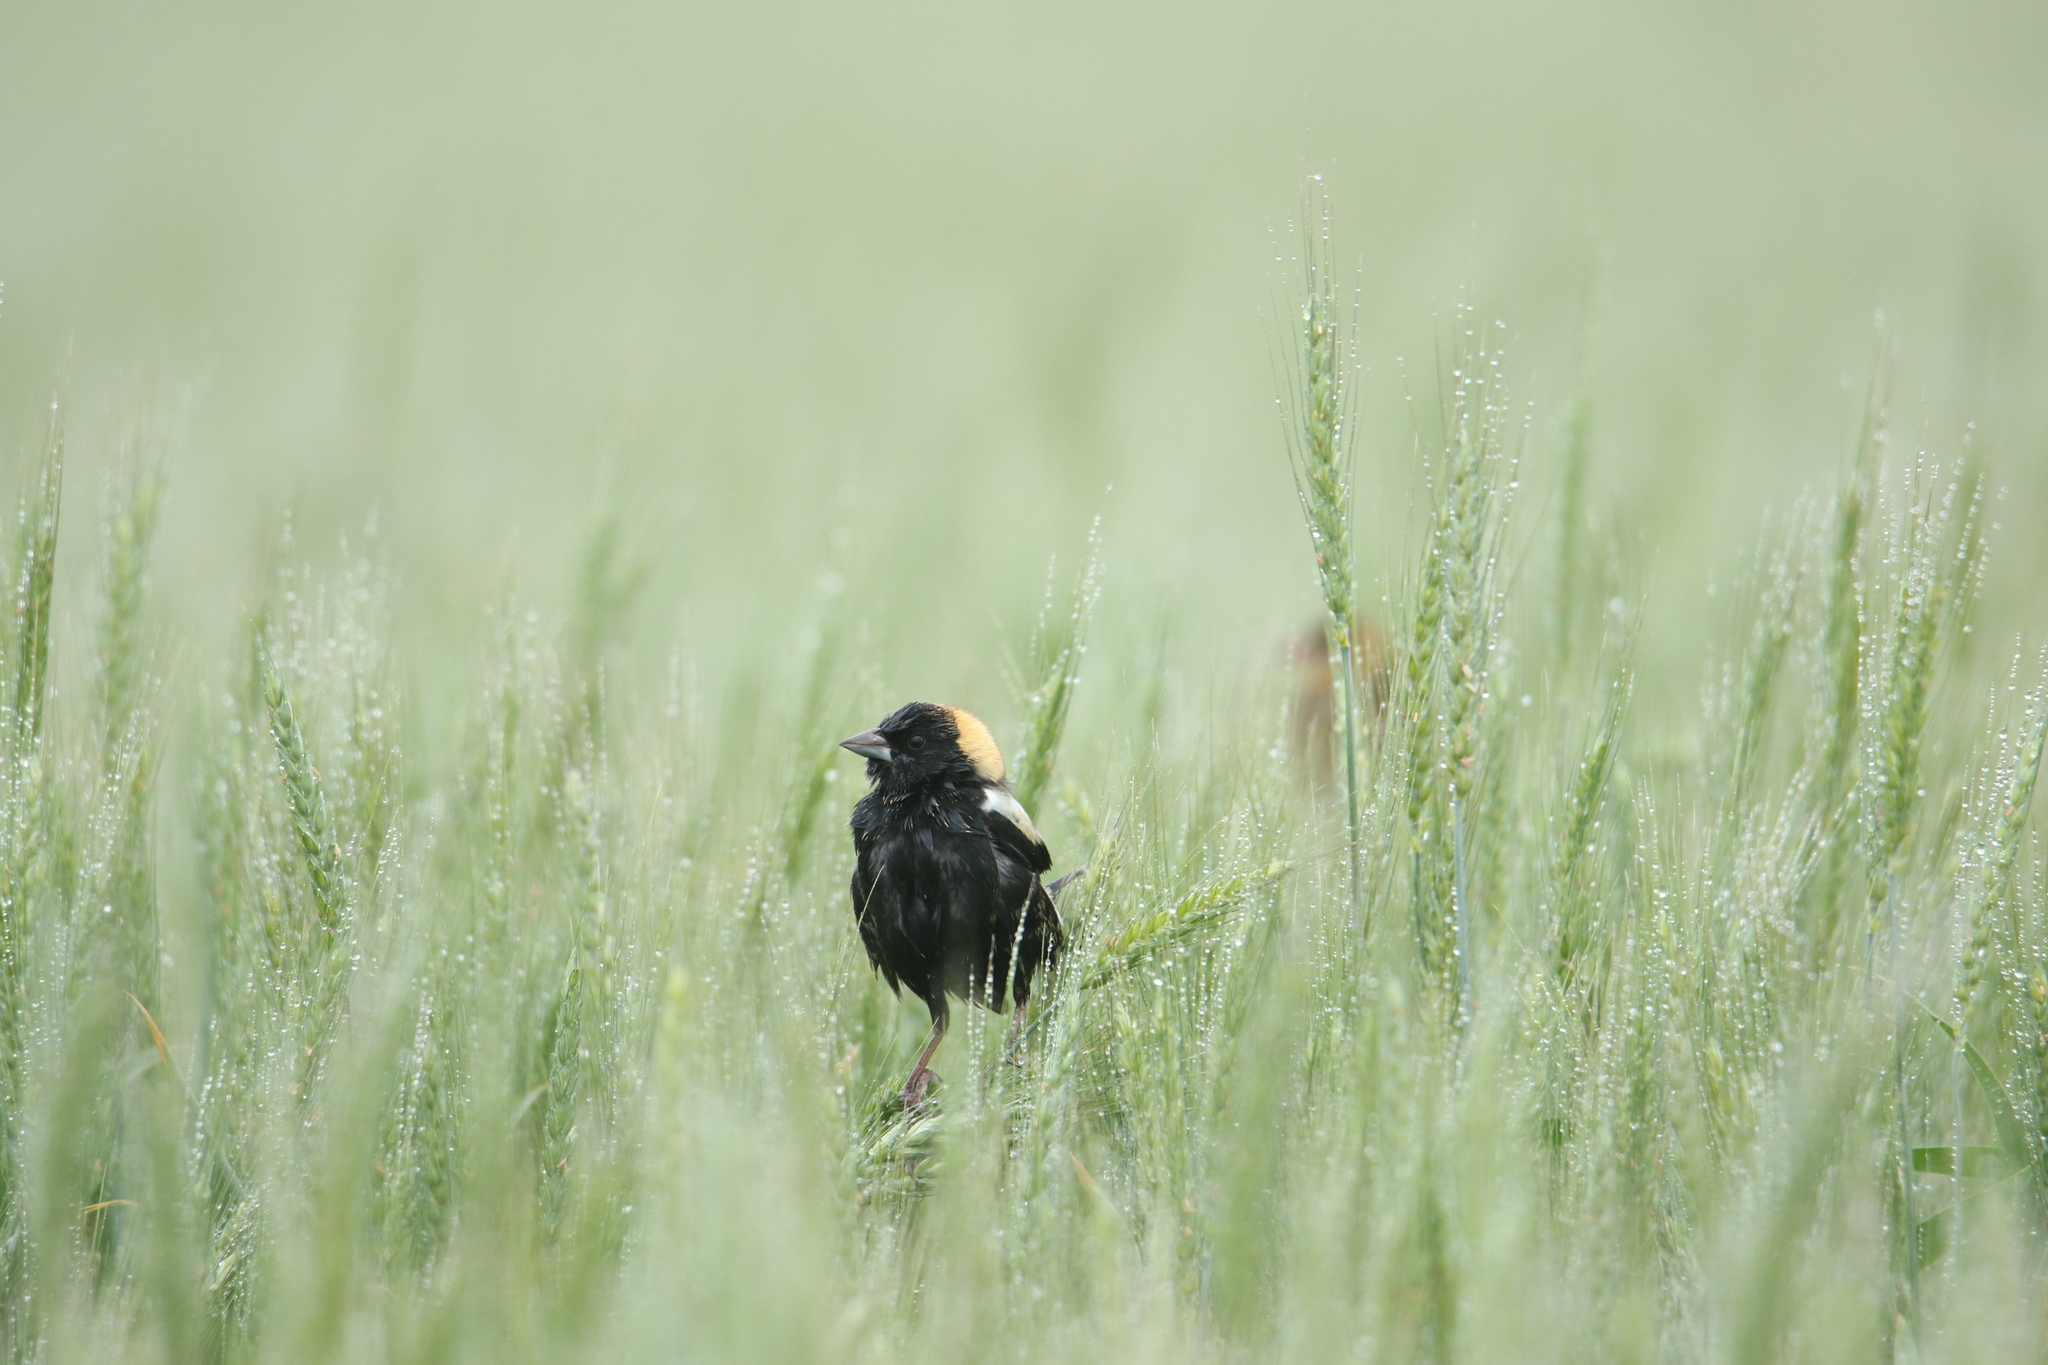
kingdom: Animalia
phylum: Chordata
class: Aves
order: Passeriformes
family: Icteridae
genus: Dolichonyx
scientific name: Dolichonyx oryzivorus
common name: Bobolink
